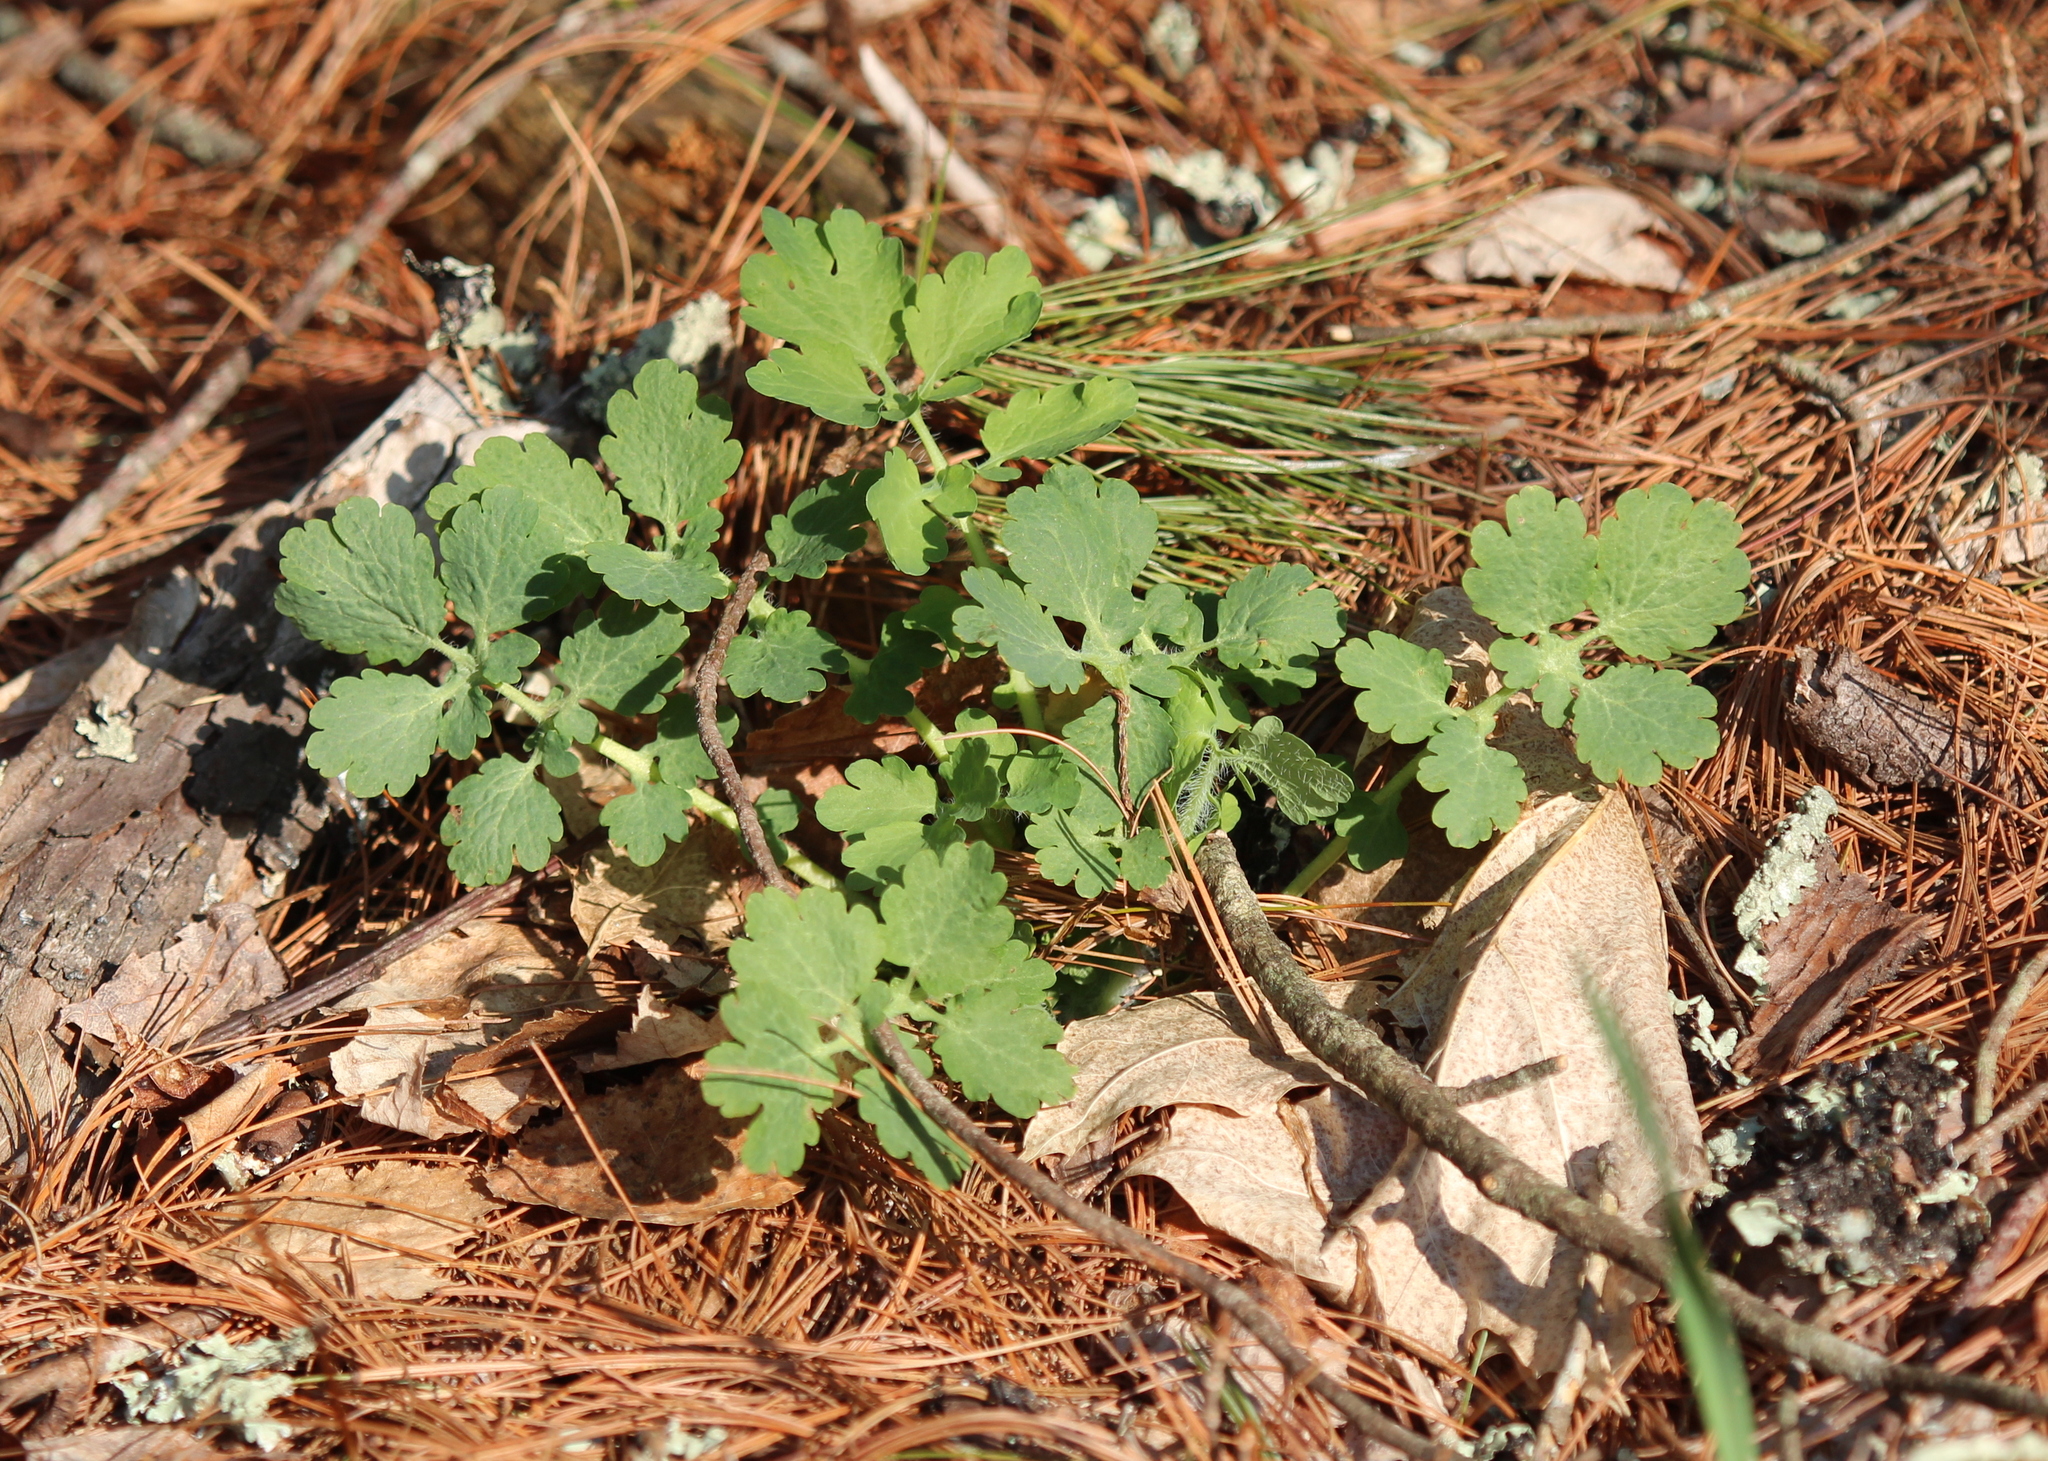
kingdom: Plantae
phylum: Tracheophyta
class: Magnoliopsida
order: Ranunculales
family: Papaveraceae
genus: Chelidonium
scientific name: Chelidonium majus
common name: Greater celandine
